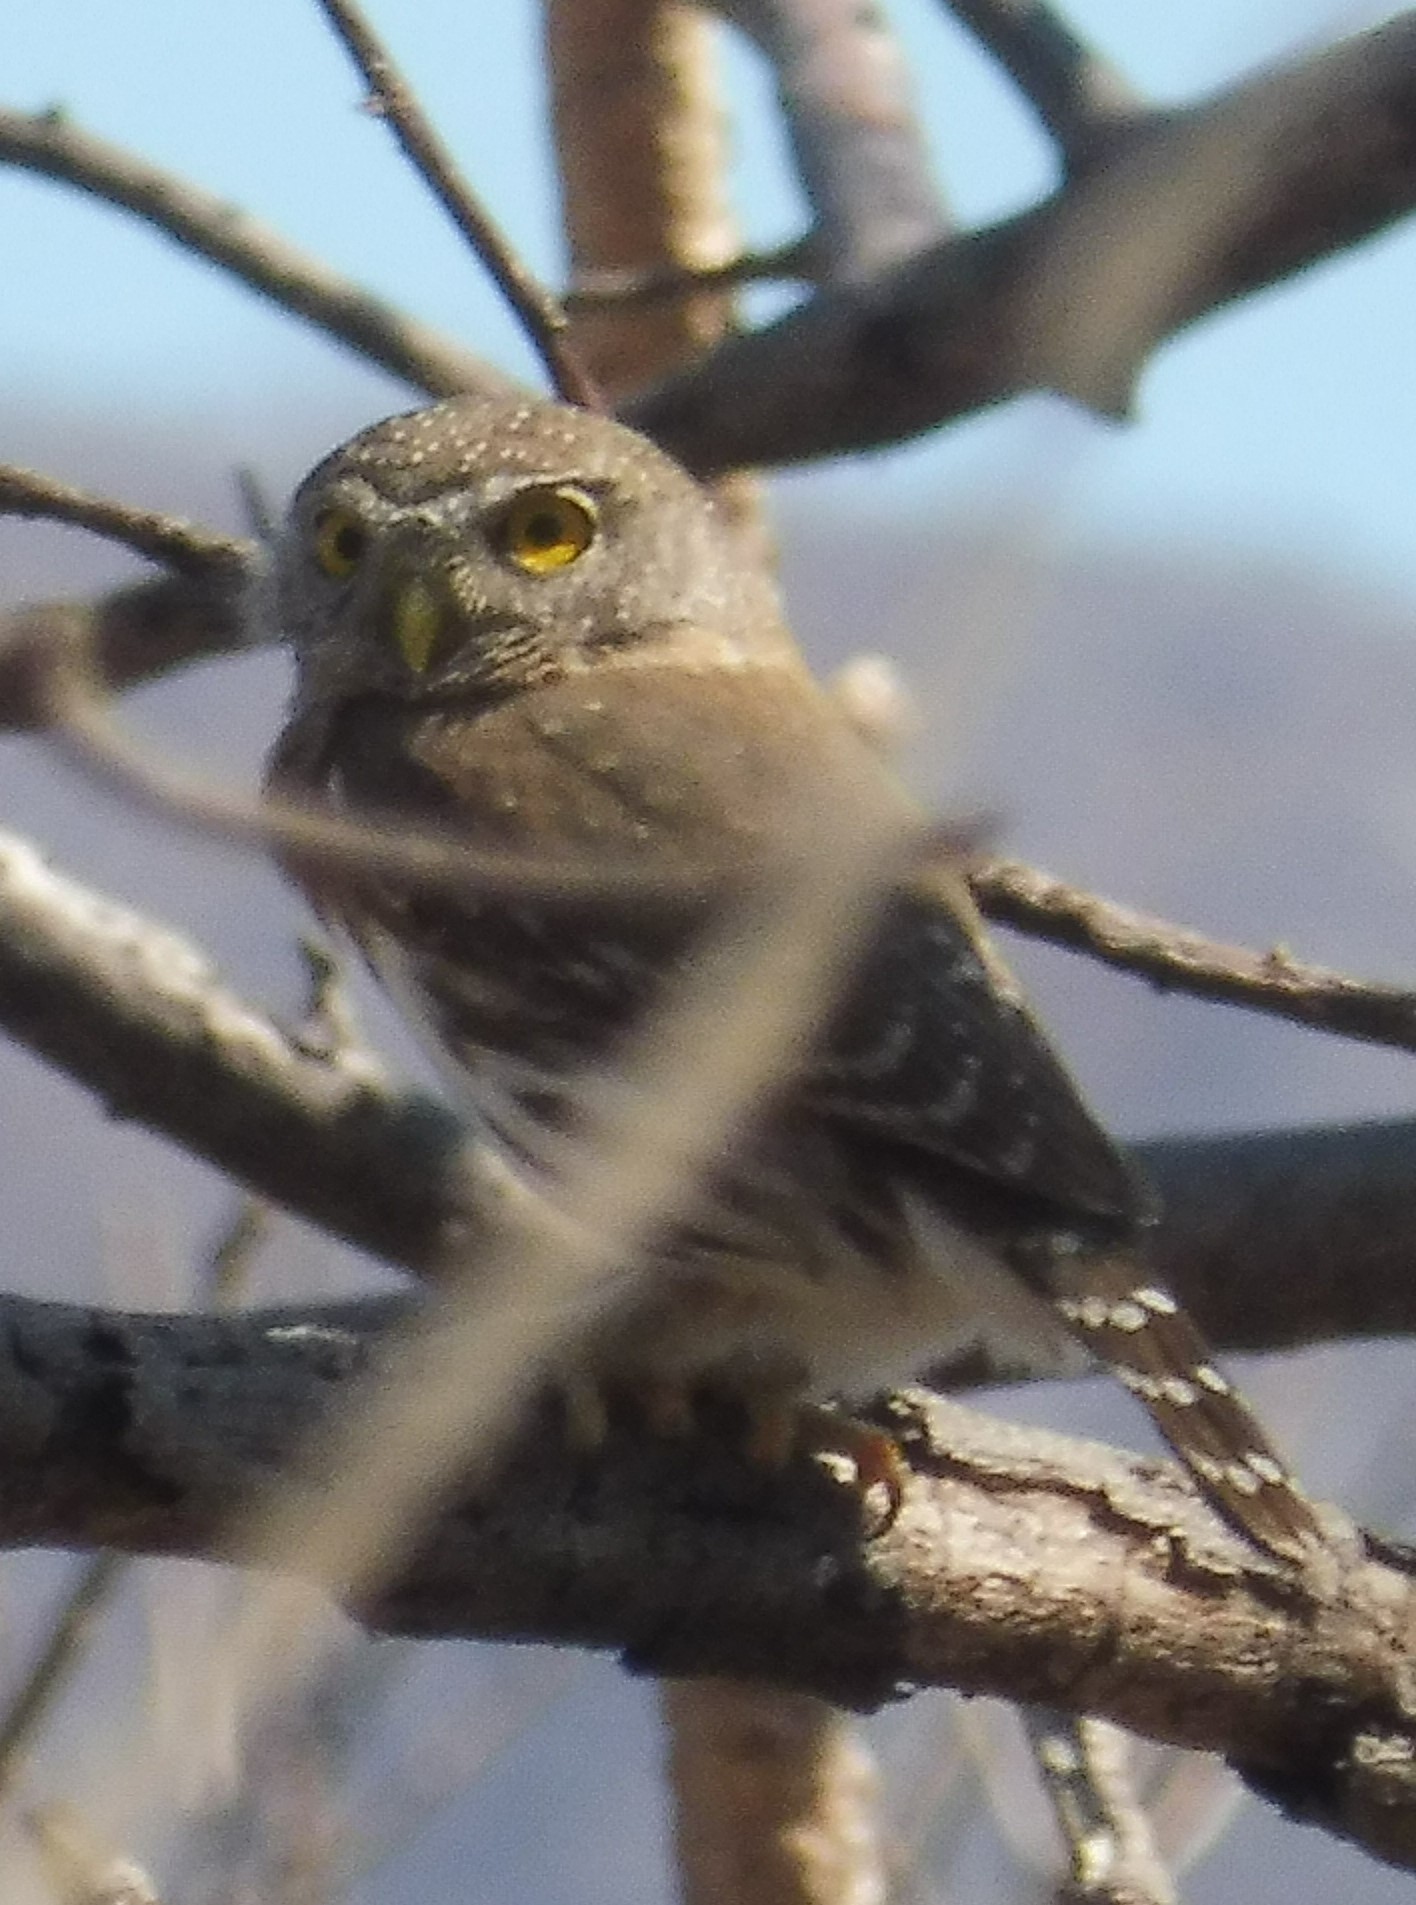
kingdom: Animalia
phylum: Chordata
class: Aves
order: Strigiformes
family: Strigidae
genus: Glaucidium
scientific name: Glaucidium gnoma
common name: Northern pygmy-owl
